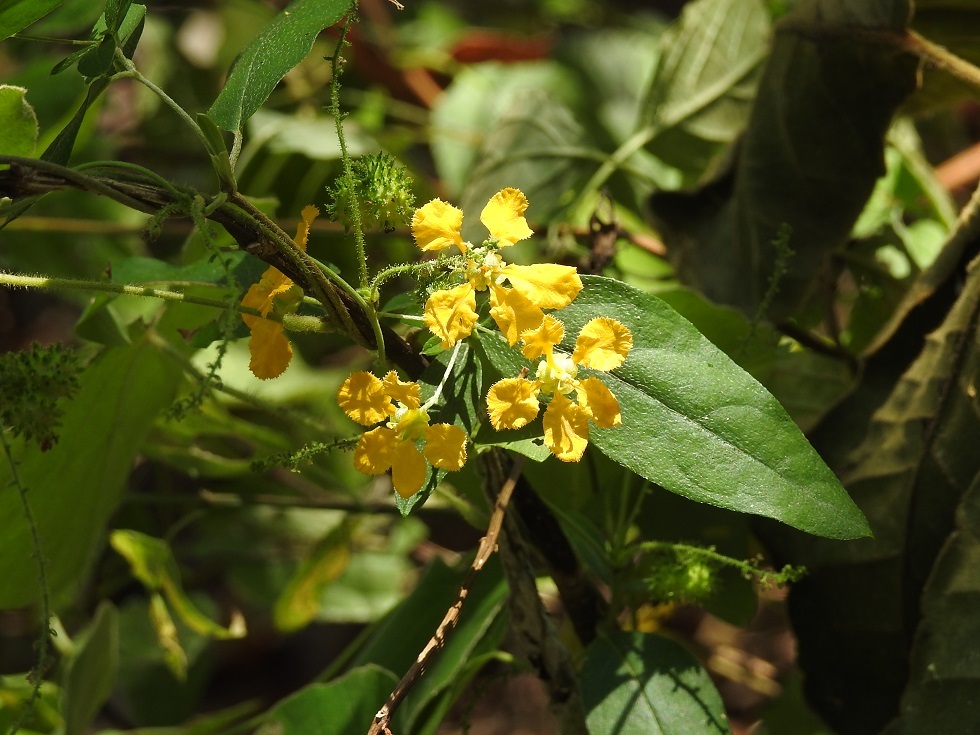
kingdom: Plantae
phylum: Tracheophyta
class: Magnoliopsida
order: Malpighiales
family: Malpighiaceae
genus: Gaudichaudia
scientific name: Gaudichaudia cynanchoides
